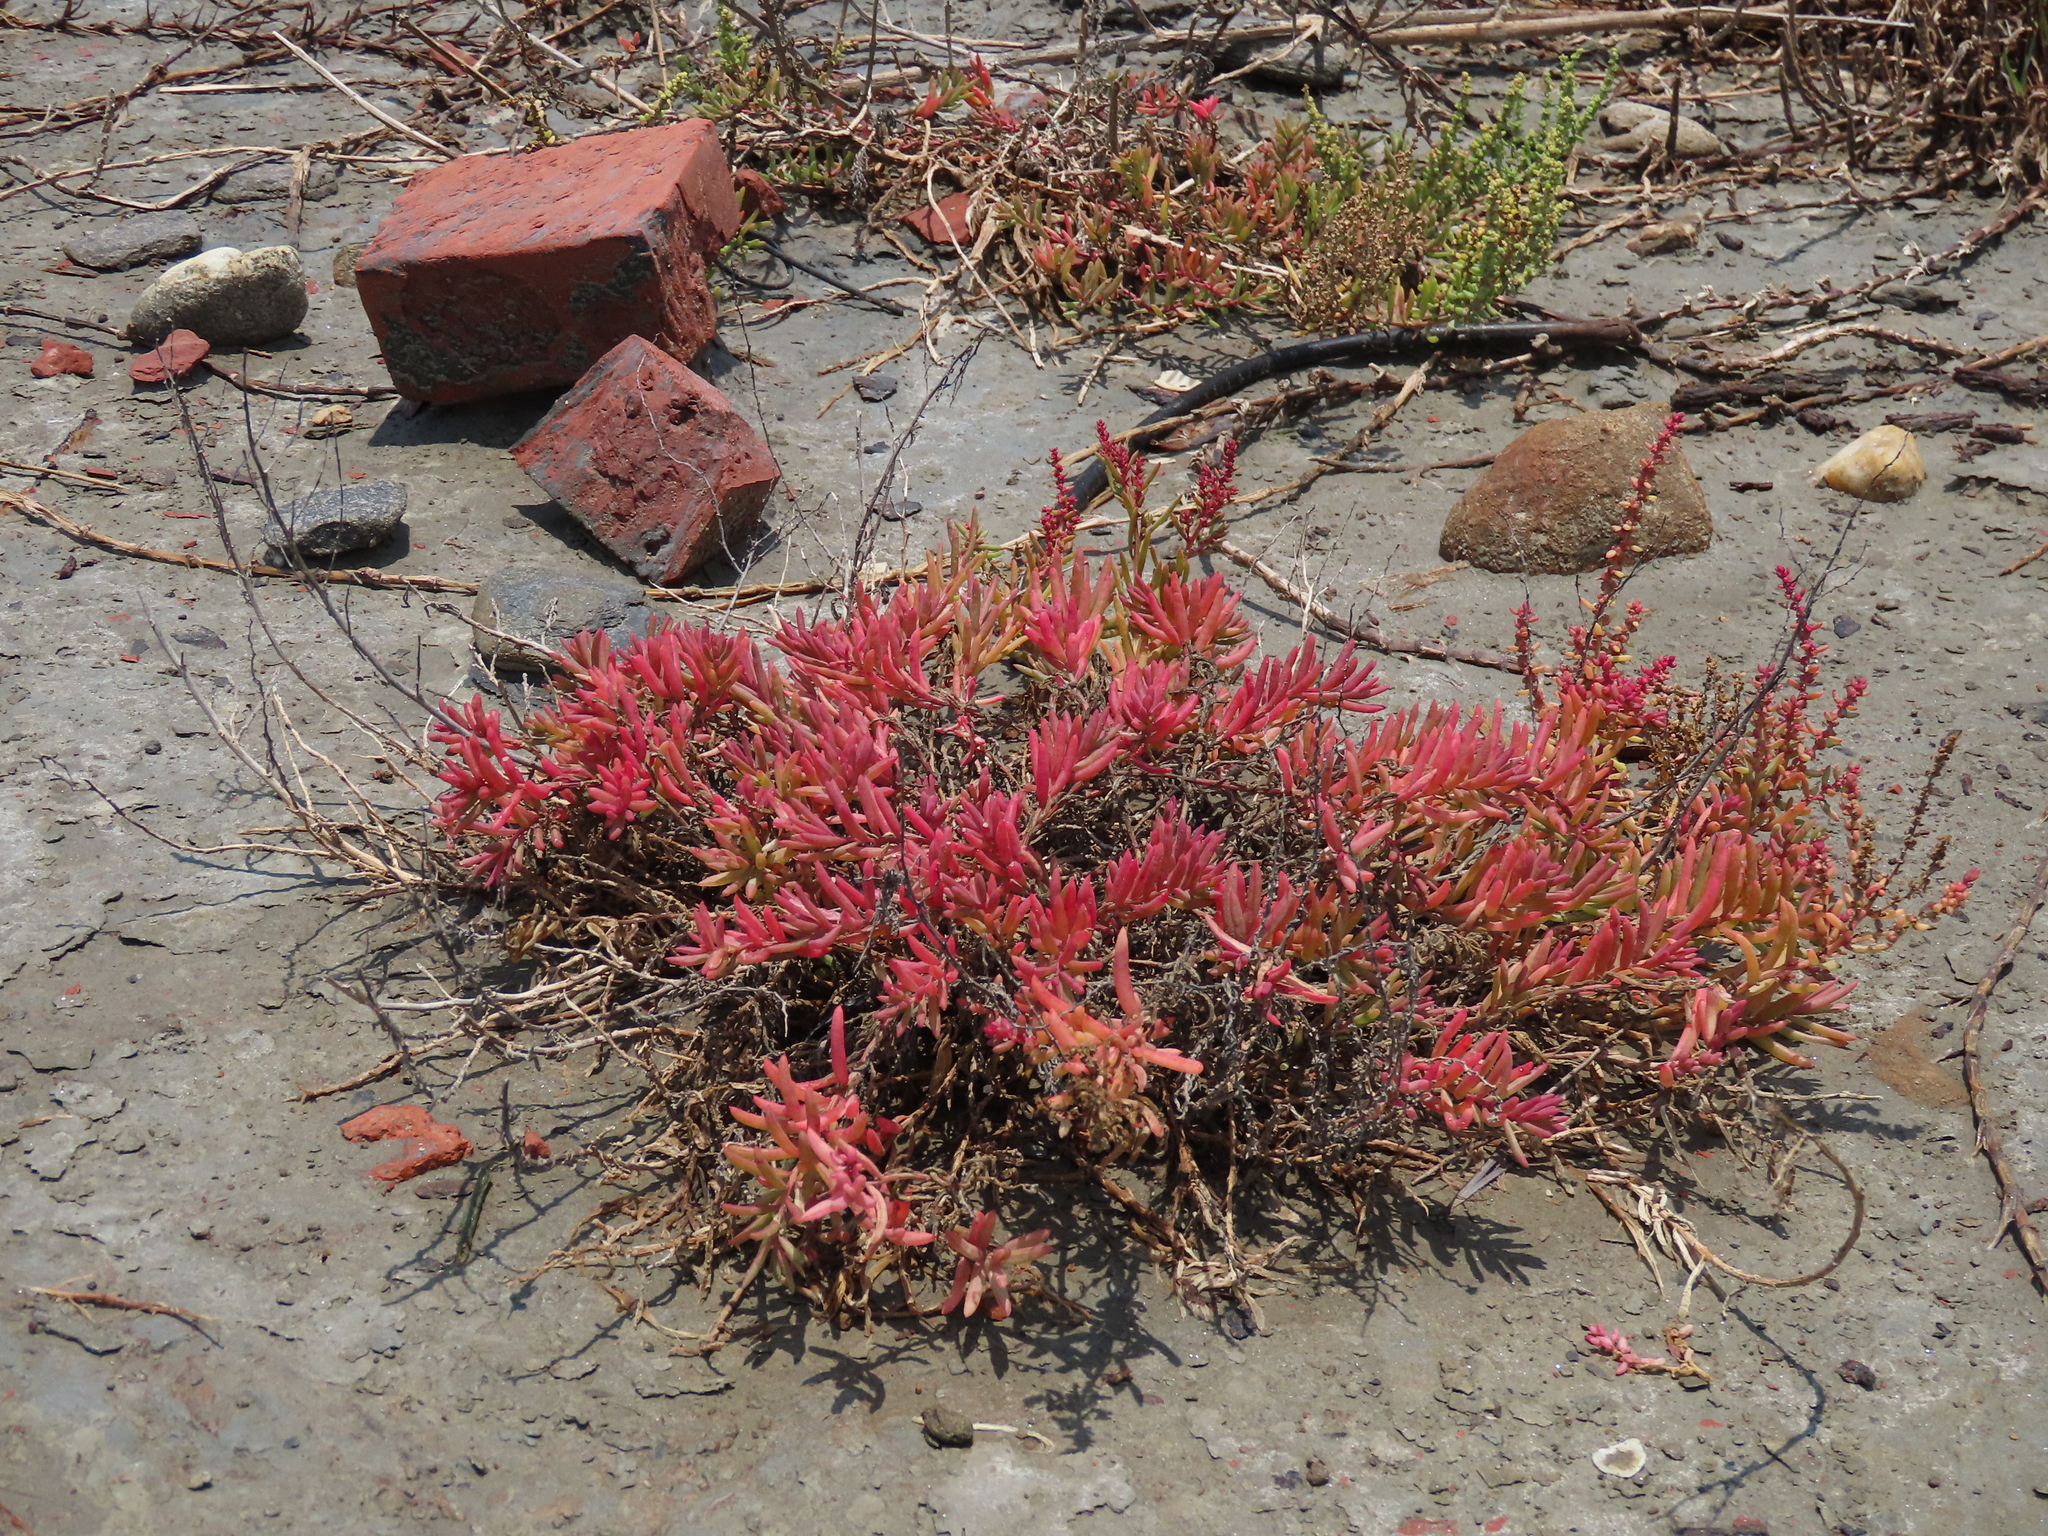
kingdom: Plantae
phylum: Tracheophyta
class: Magnoliopsida
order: Caryophyllales
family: Amaranthaceae
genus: Suaeda
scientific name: Suaeda maritima
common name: Annual sea-blite
